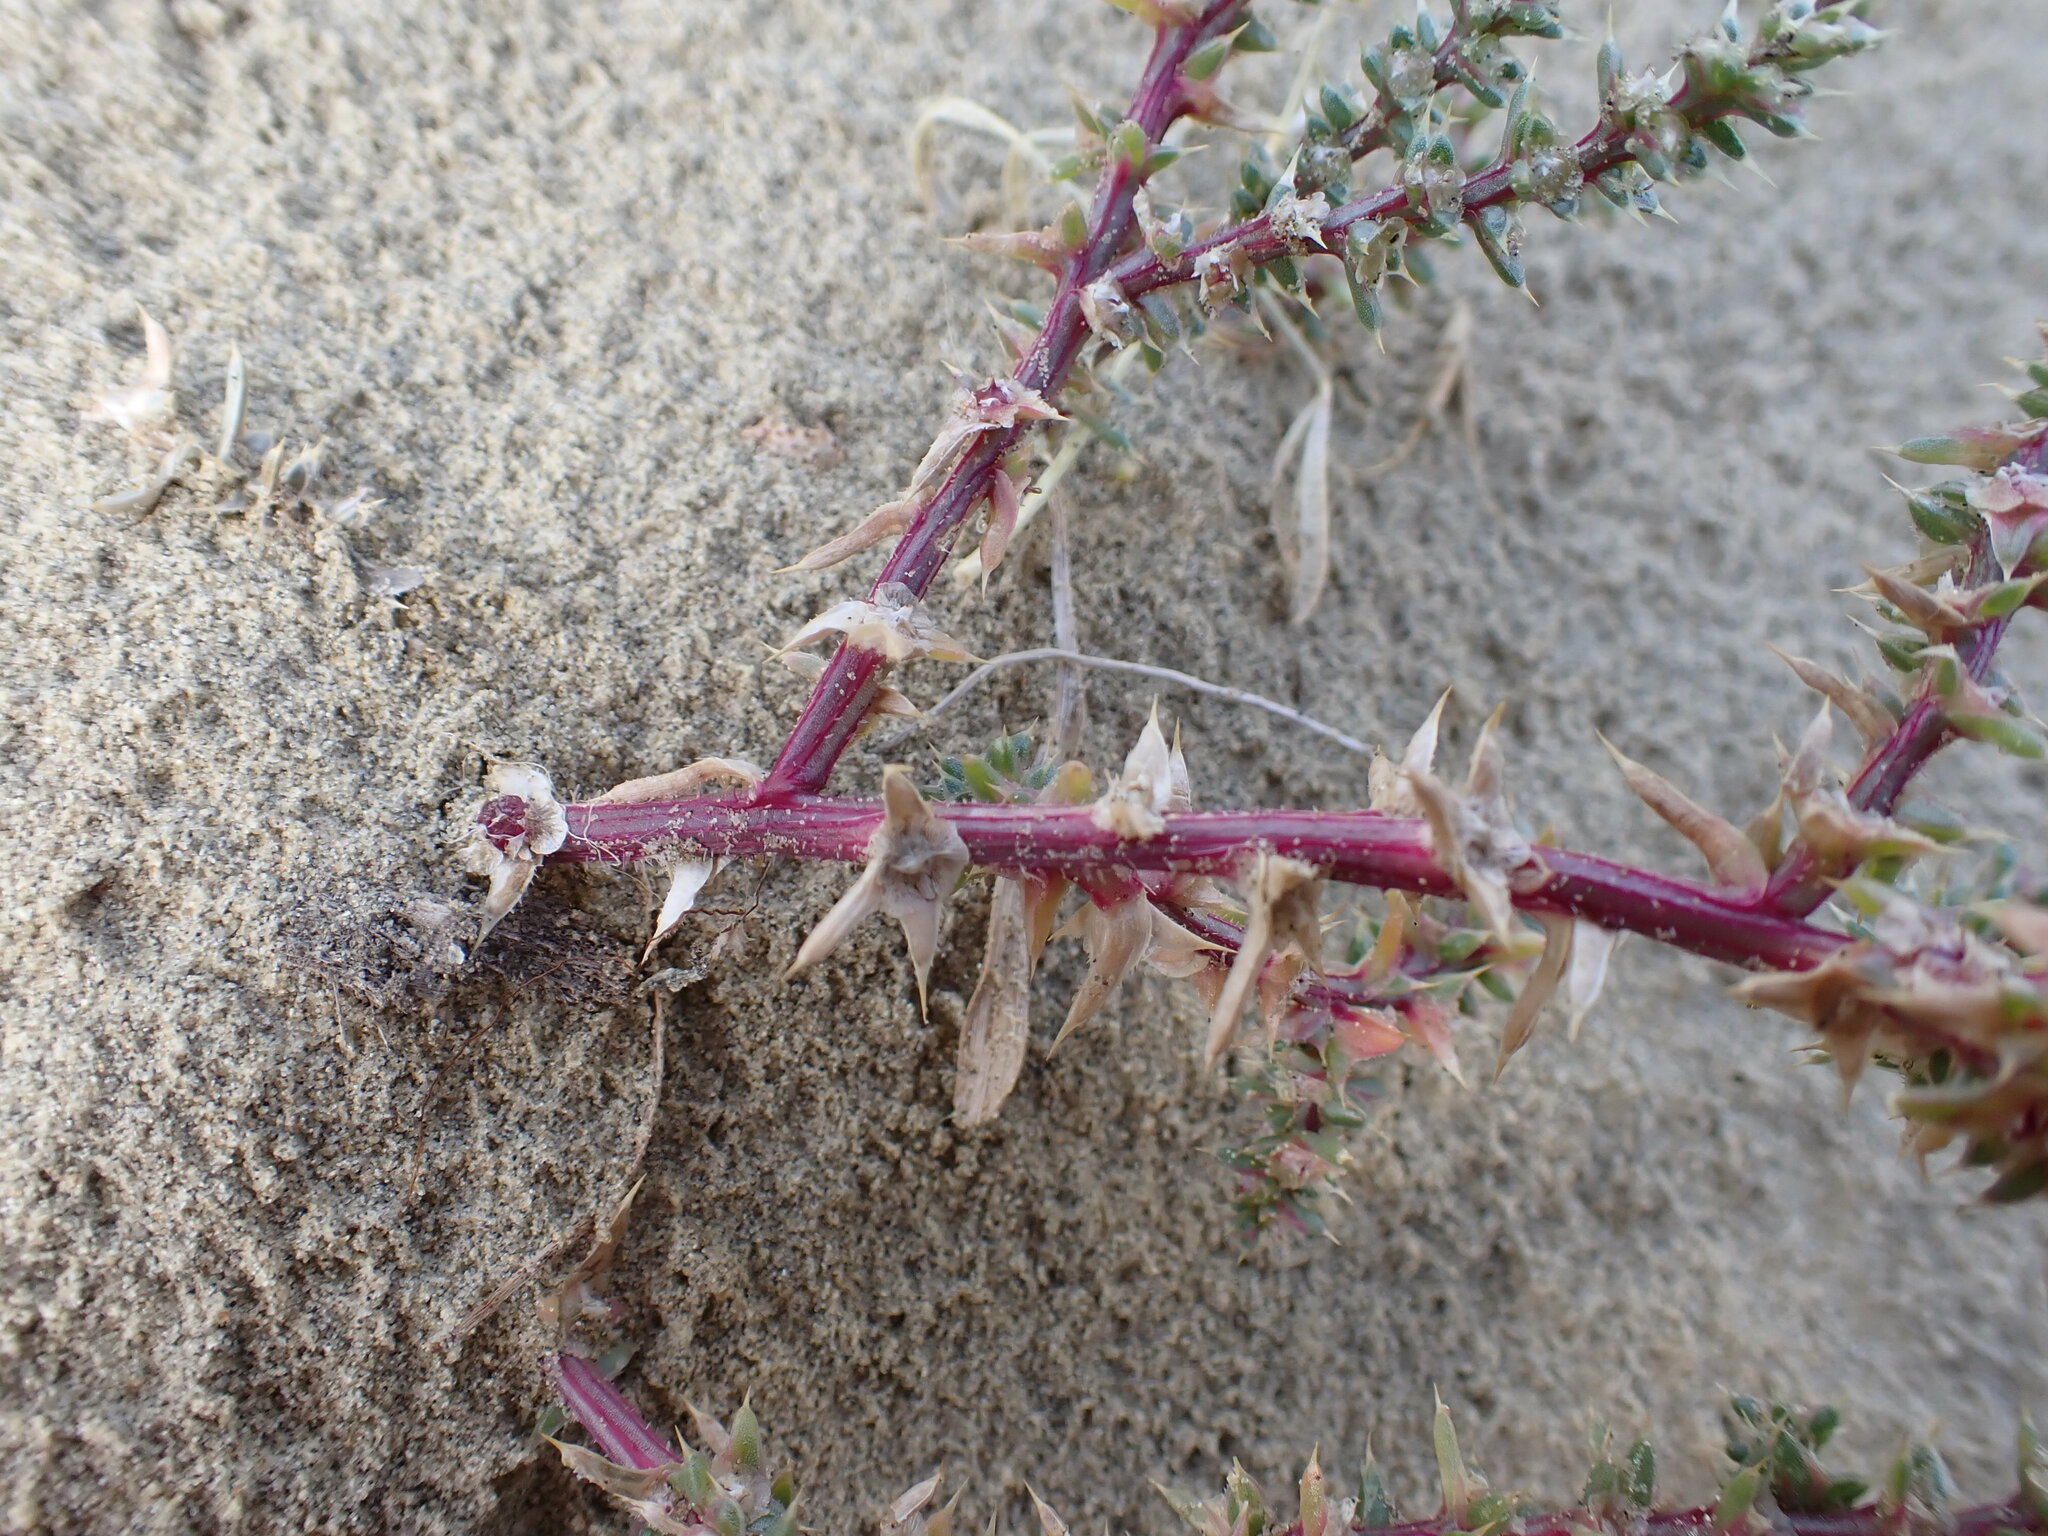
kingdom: Plantae
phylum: Tracheophyta
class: Magnoliopsida
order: Caryophyllales
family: Amaranthaceae
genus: Salsola
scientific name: Salsola tragus
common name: Prickly russian thistle
